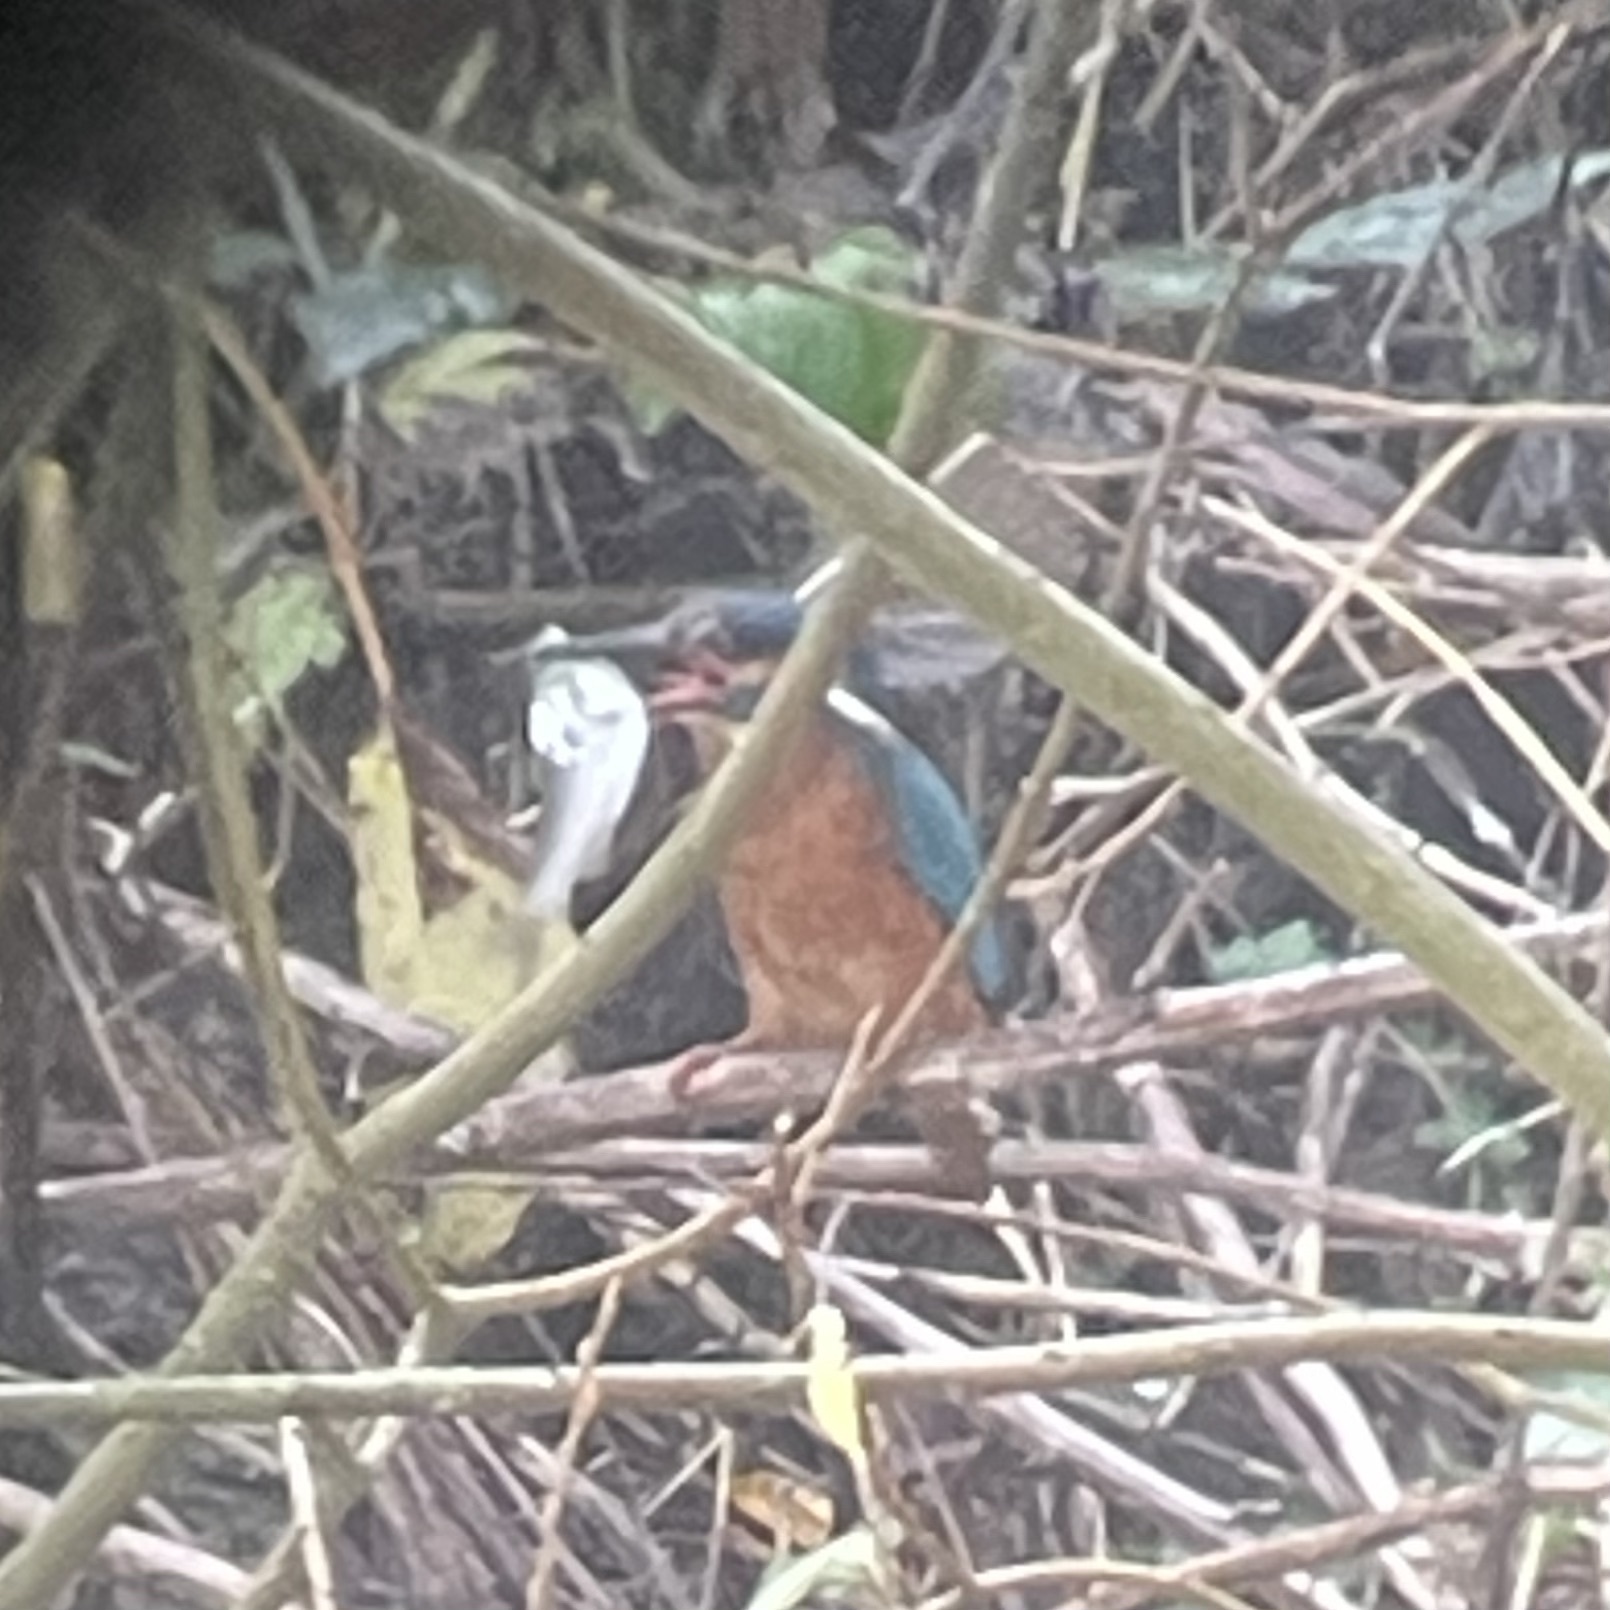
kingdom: Animalia
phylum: Chordata
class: Aves
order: Coraciiformes
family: Alcedinidae
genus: Alcedo
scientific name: Alcedo atthis
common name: Common kingfisher
